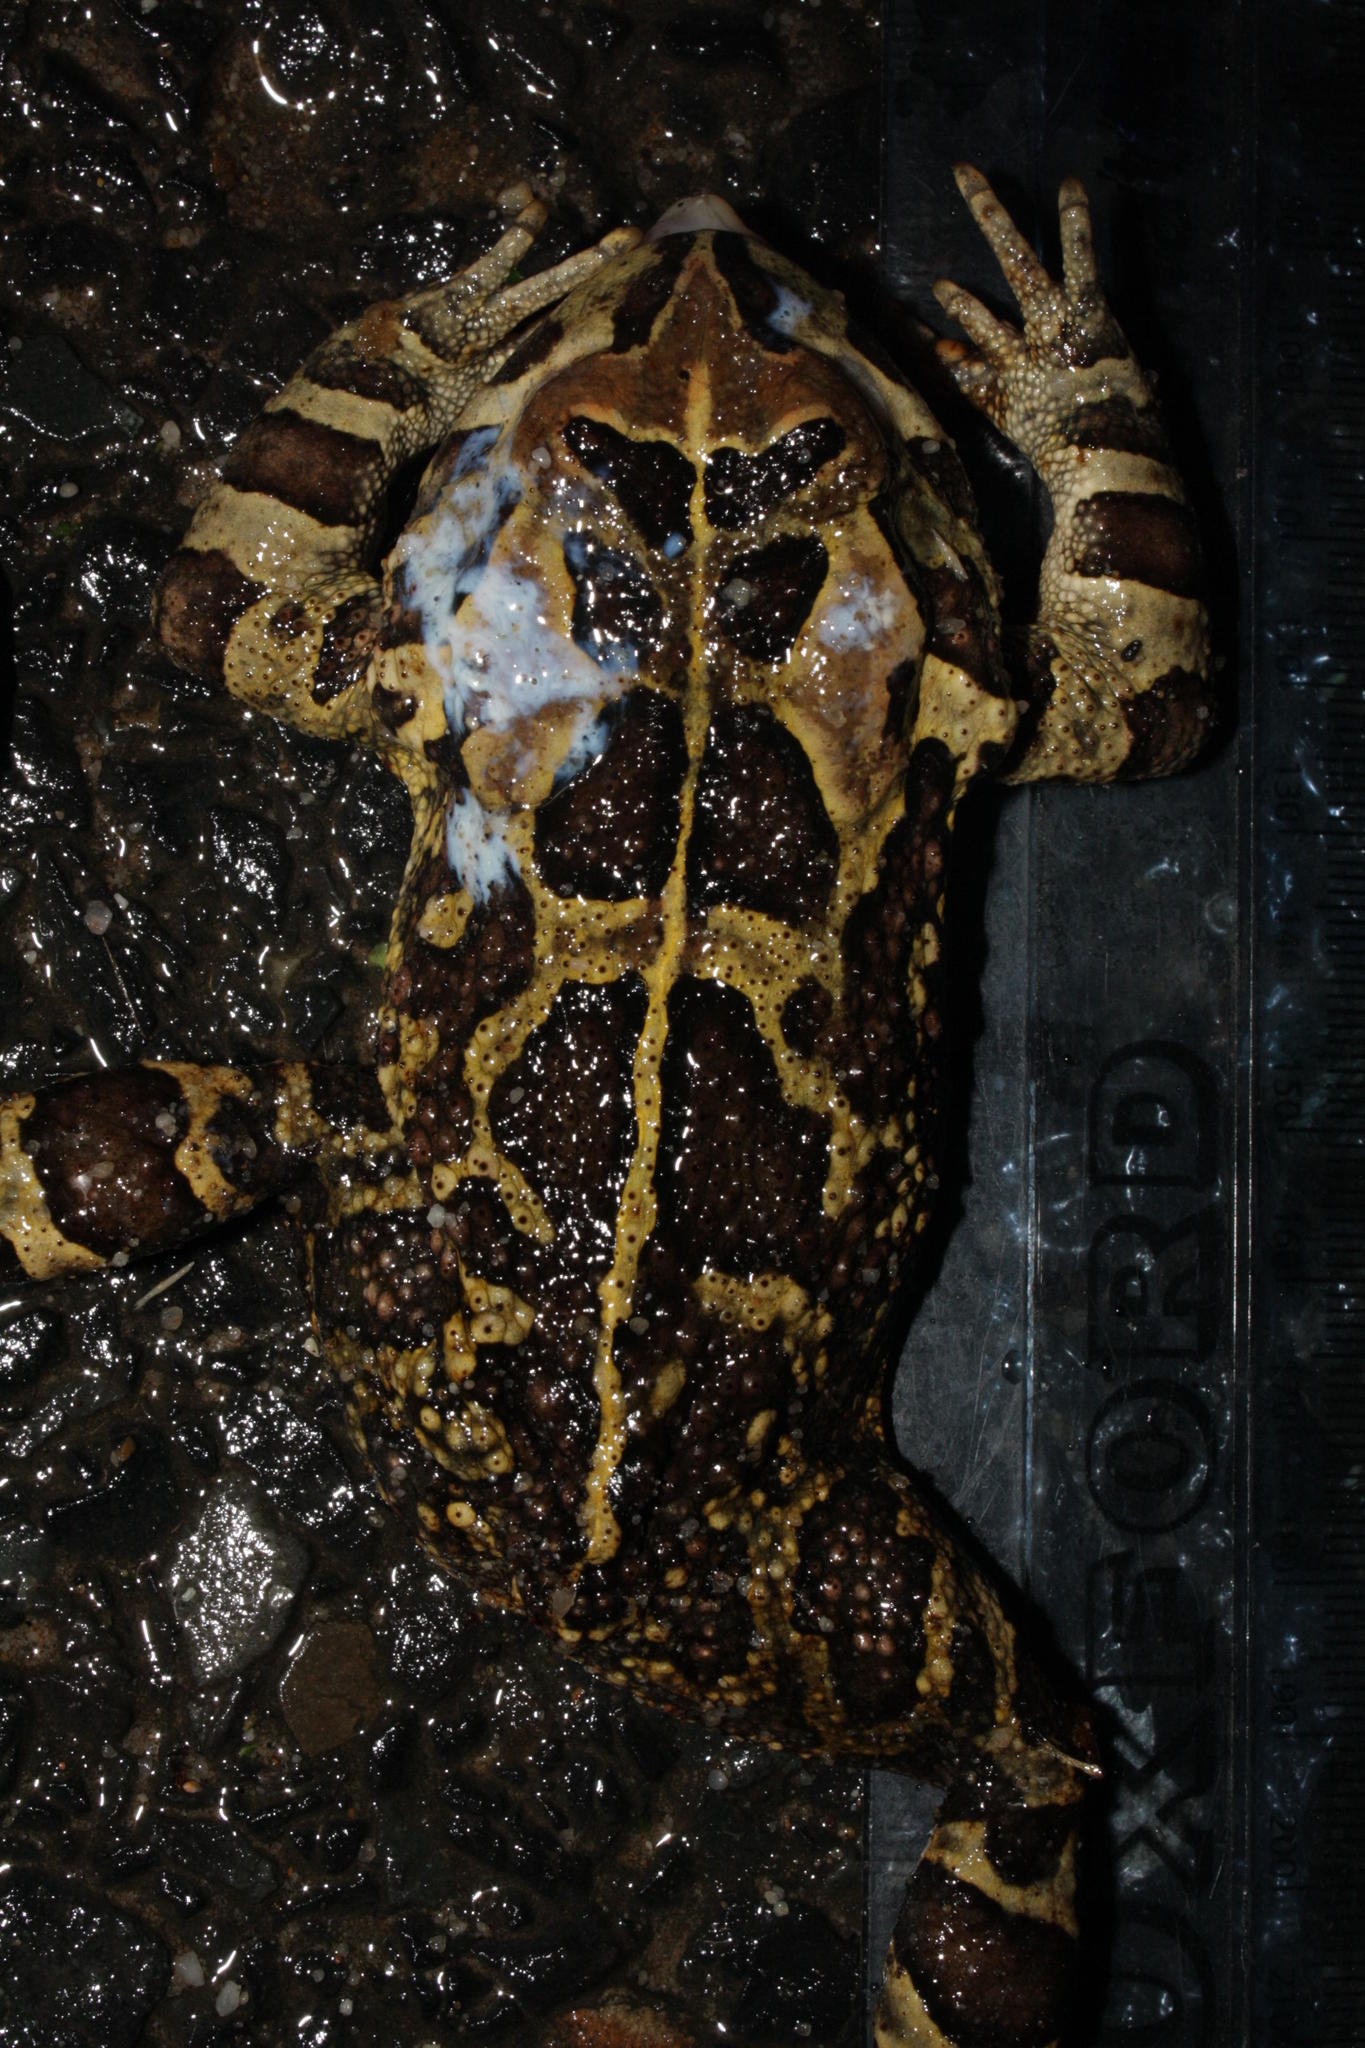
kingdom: Animalia
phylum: Chordata
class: Amphibia
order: Anura
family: Bufonidae
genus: Sclerophrys
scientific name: Sclerophrys pantherina
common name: Panther toad
